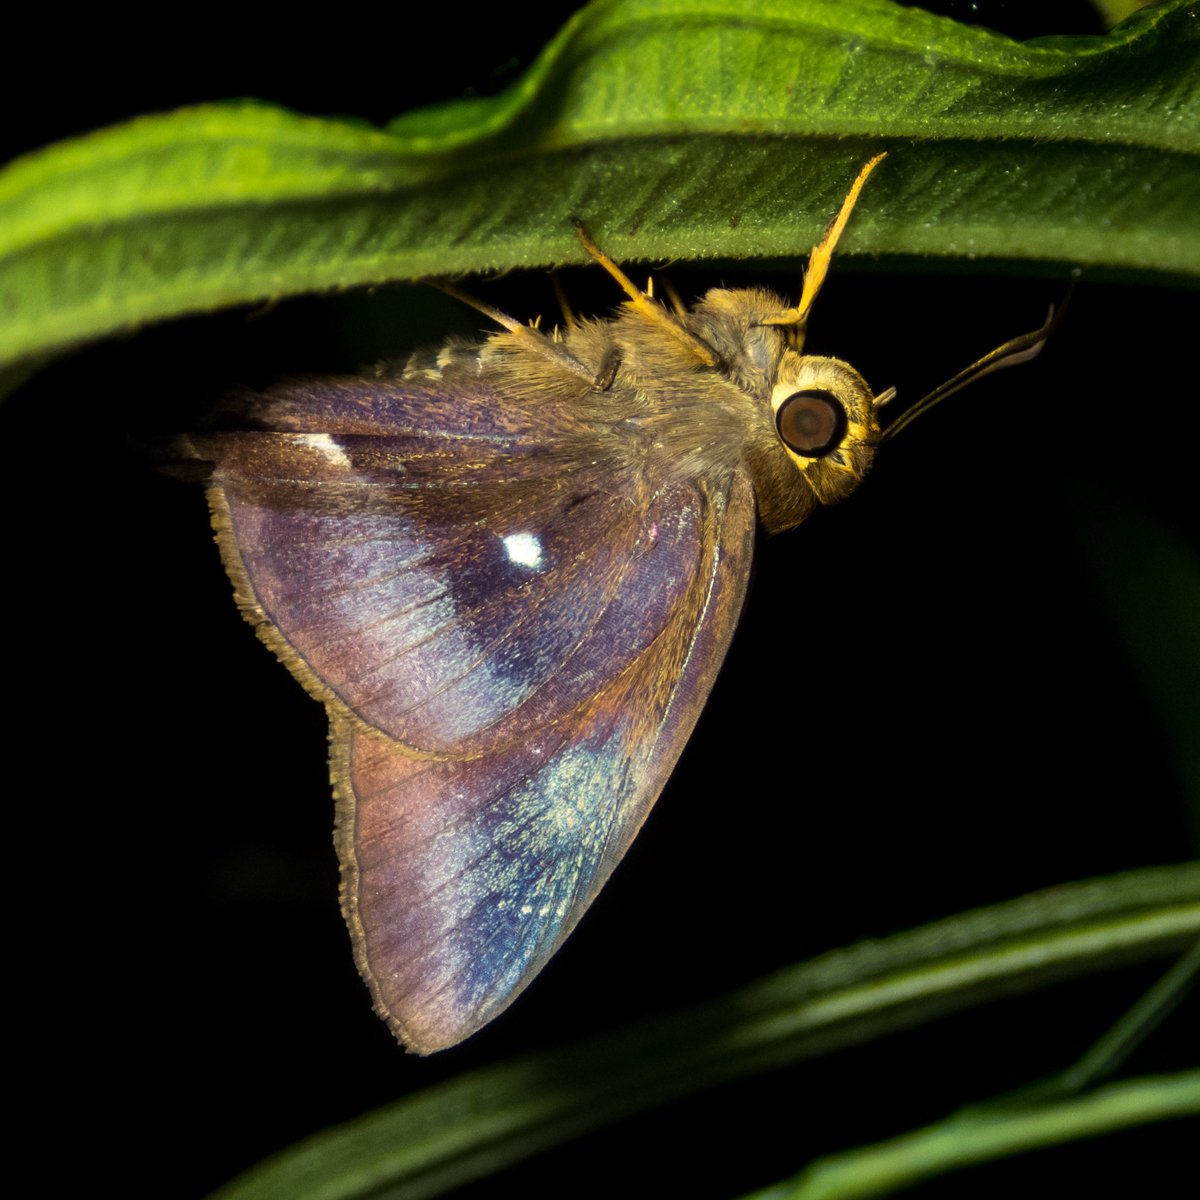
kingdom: Animalia
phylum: Arthropoda
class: Insecta
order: Lepidoptera
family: Hesperiidae
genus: Hasora
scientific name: Hasora badra
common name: Common awl
